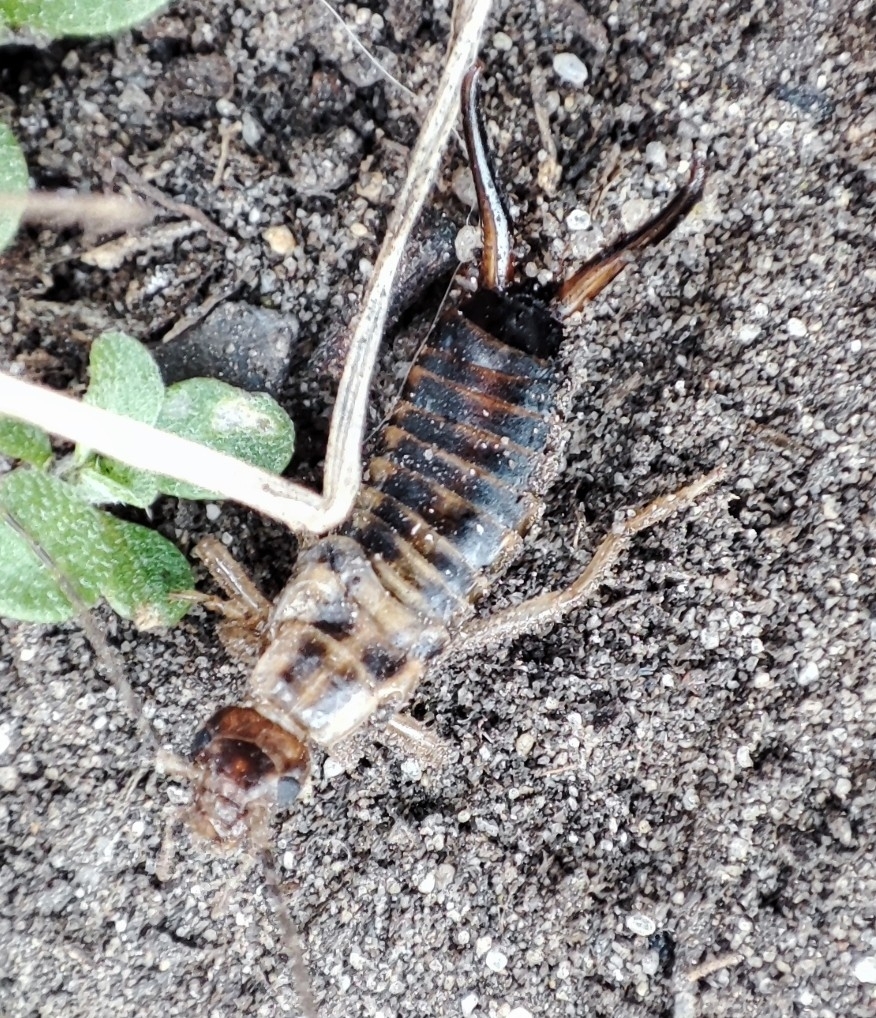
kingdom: Animalia
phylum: Arthropoda
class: Insecta
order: Dermaptera
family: Forficulidae
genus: Forficula
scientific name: Forficula tomis
